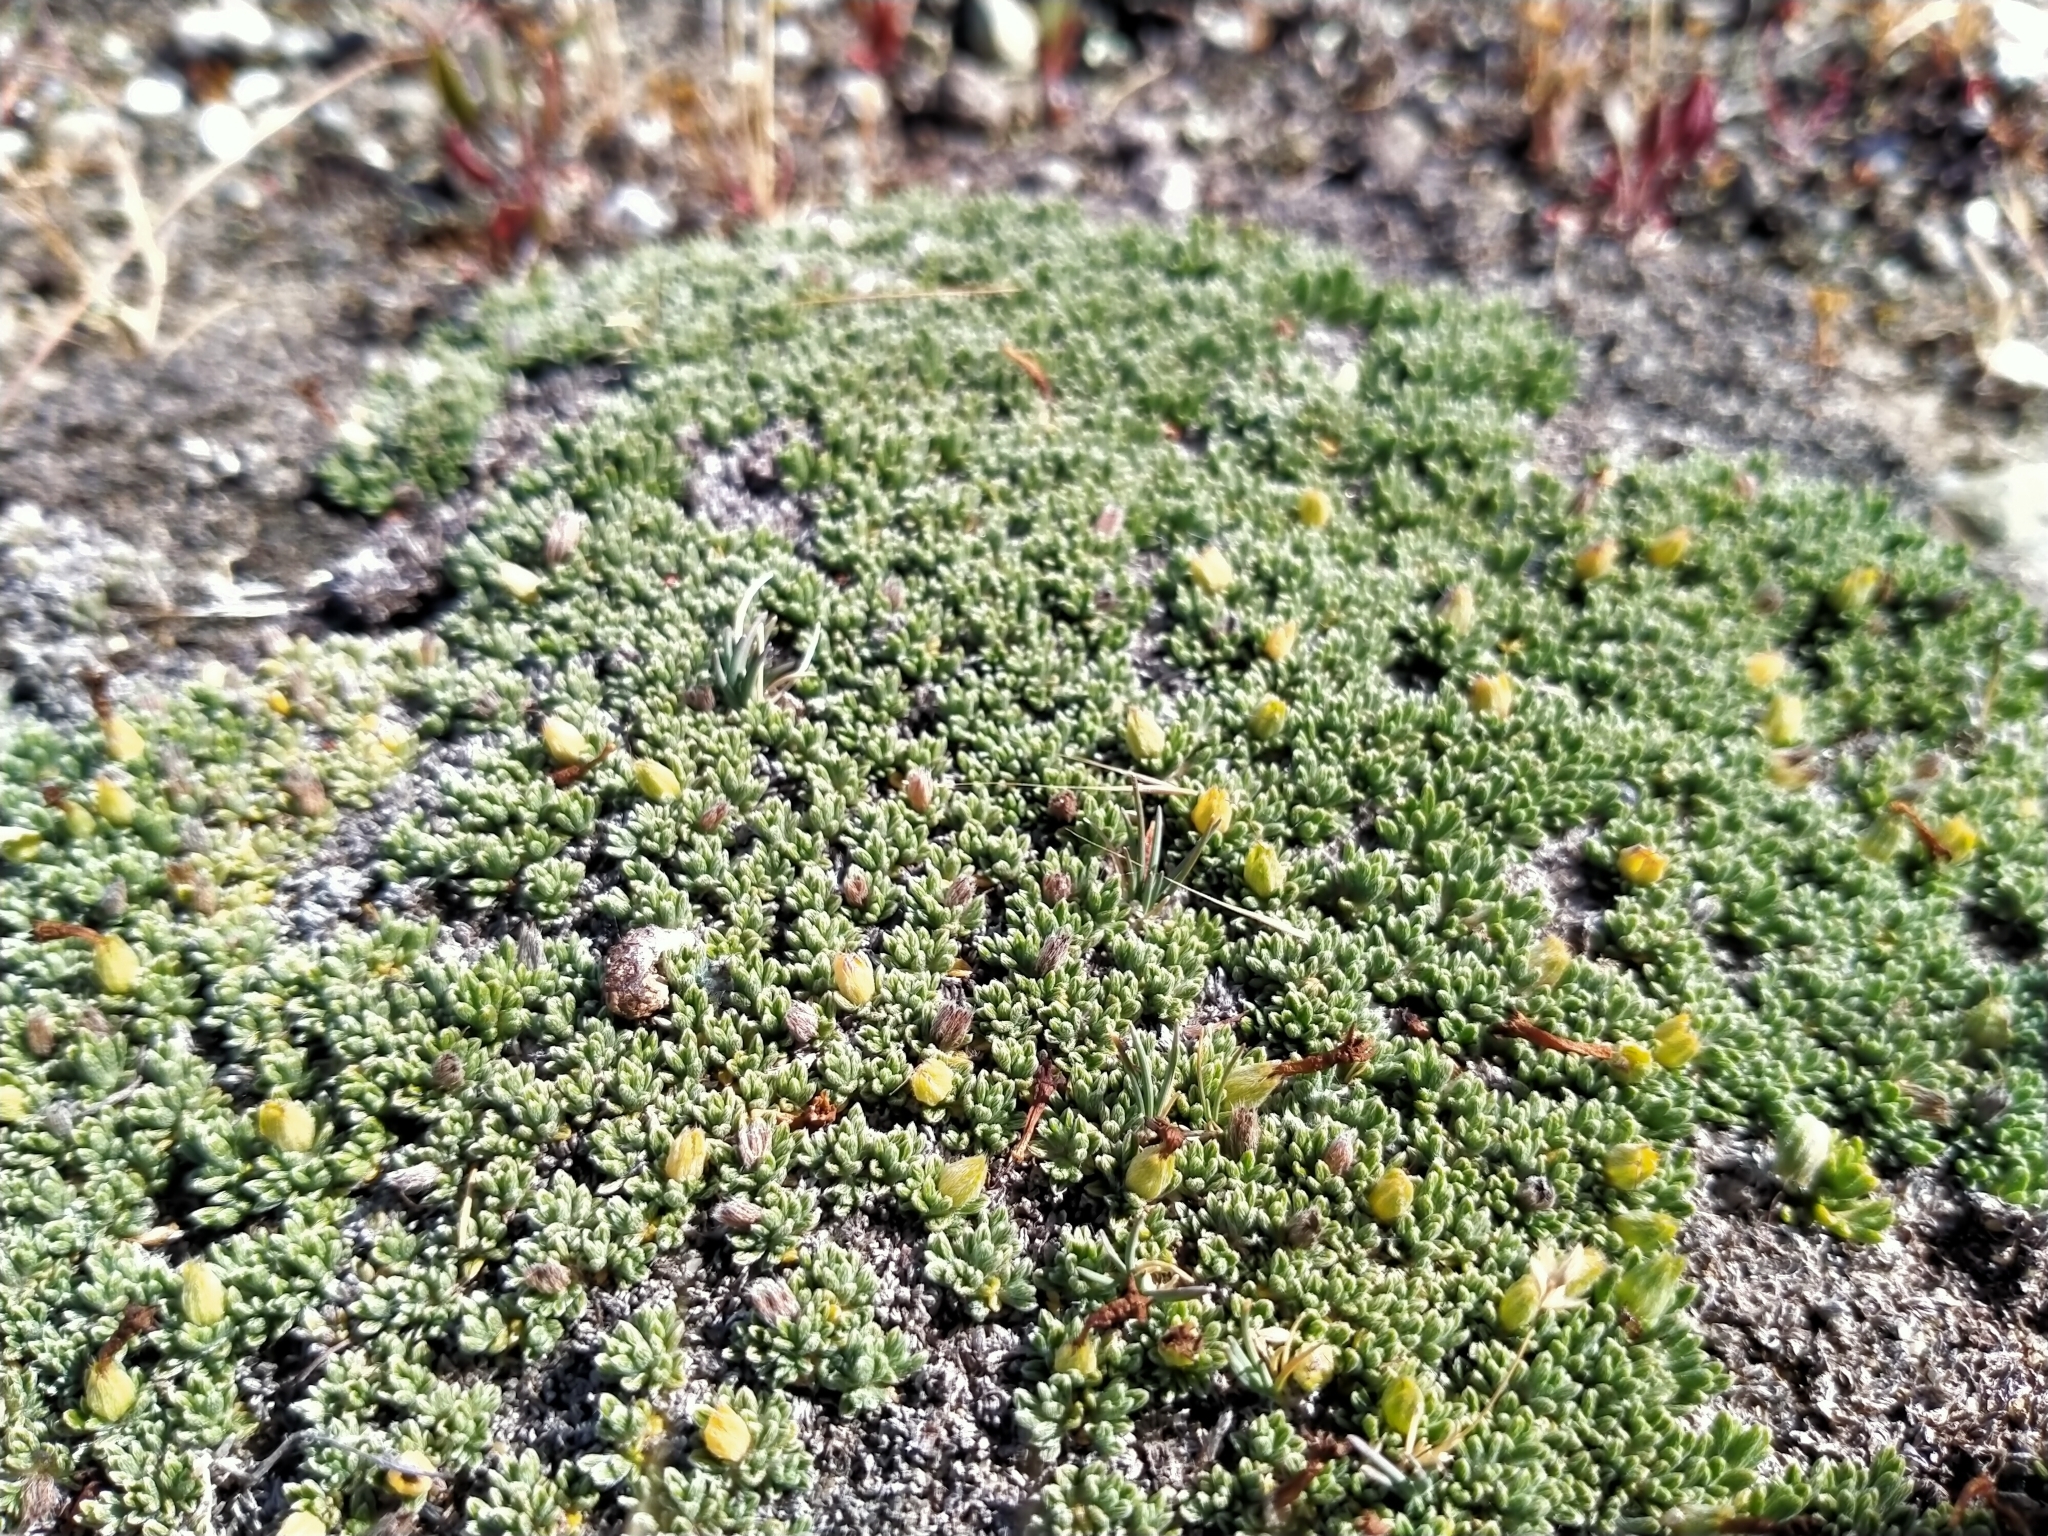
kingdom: Plantae
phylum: Tracheophyta
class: Magnoliopsida
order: Boraginales
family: Boraginaceae
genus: Myosotis
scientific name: Myosotis uniflora
